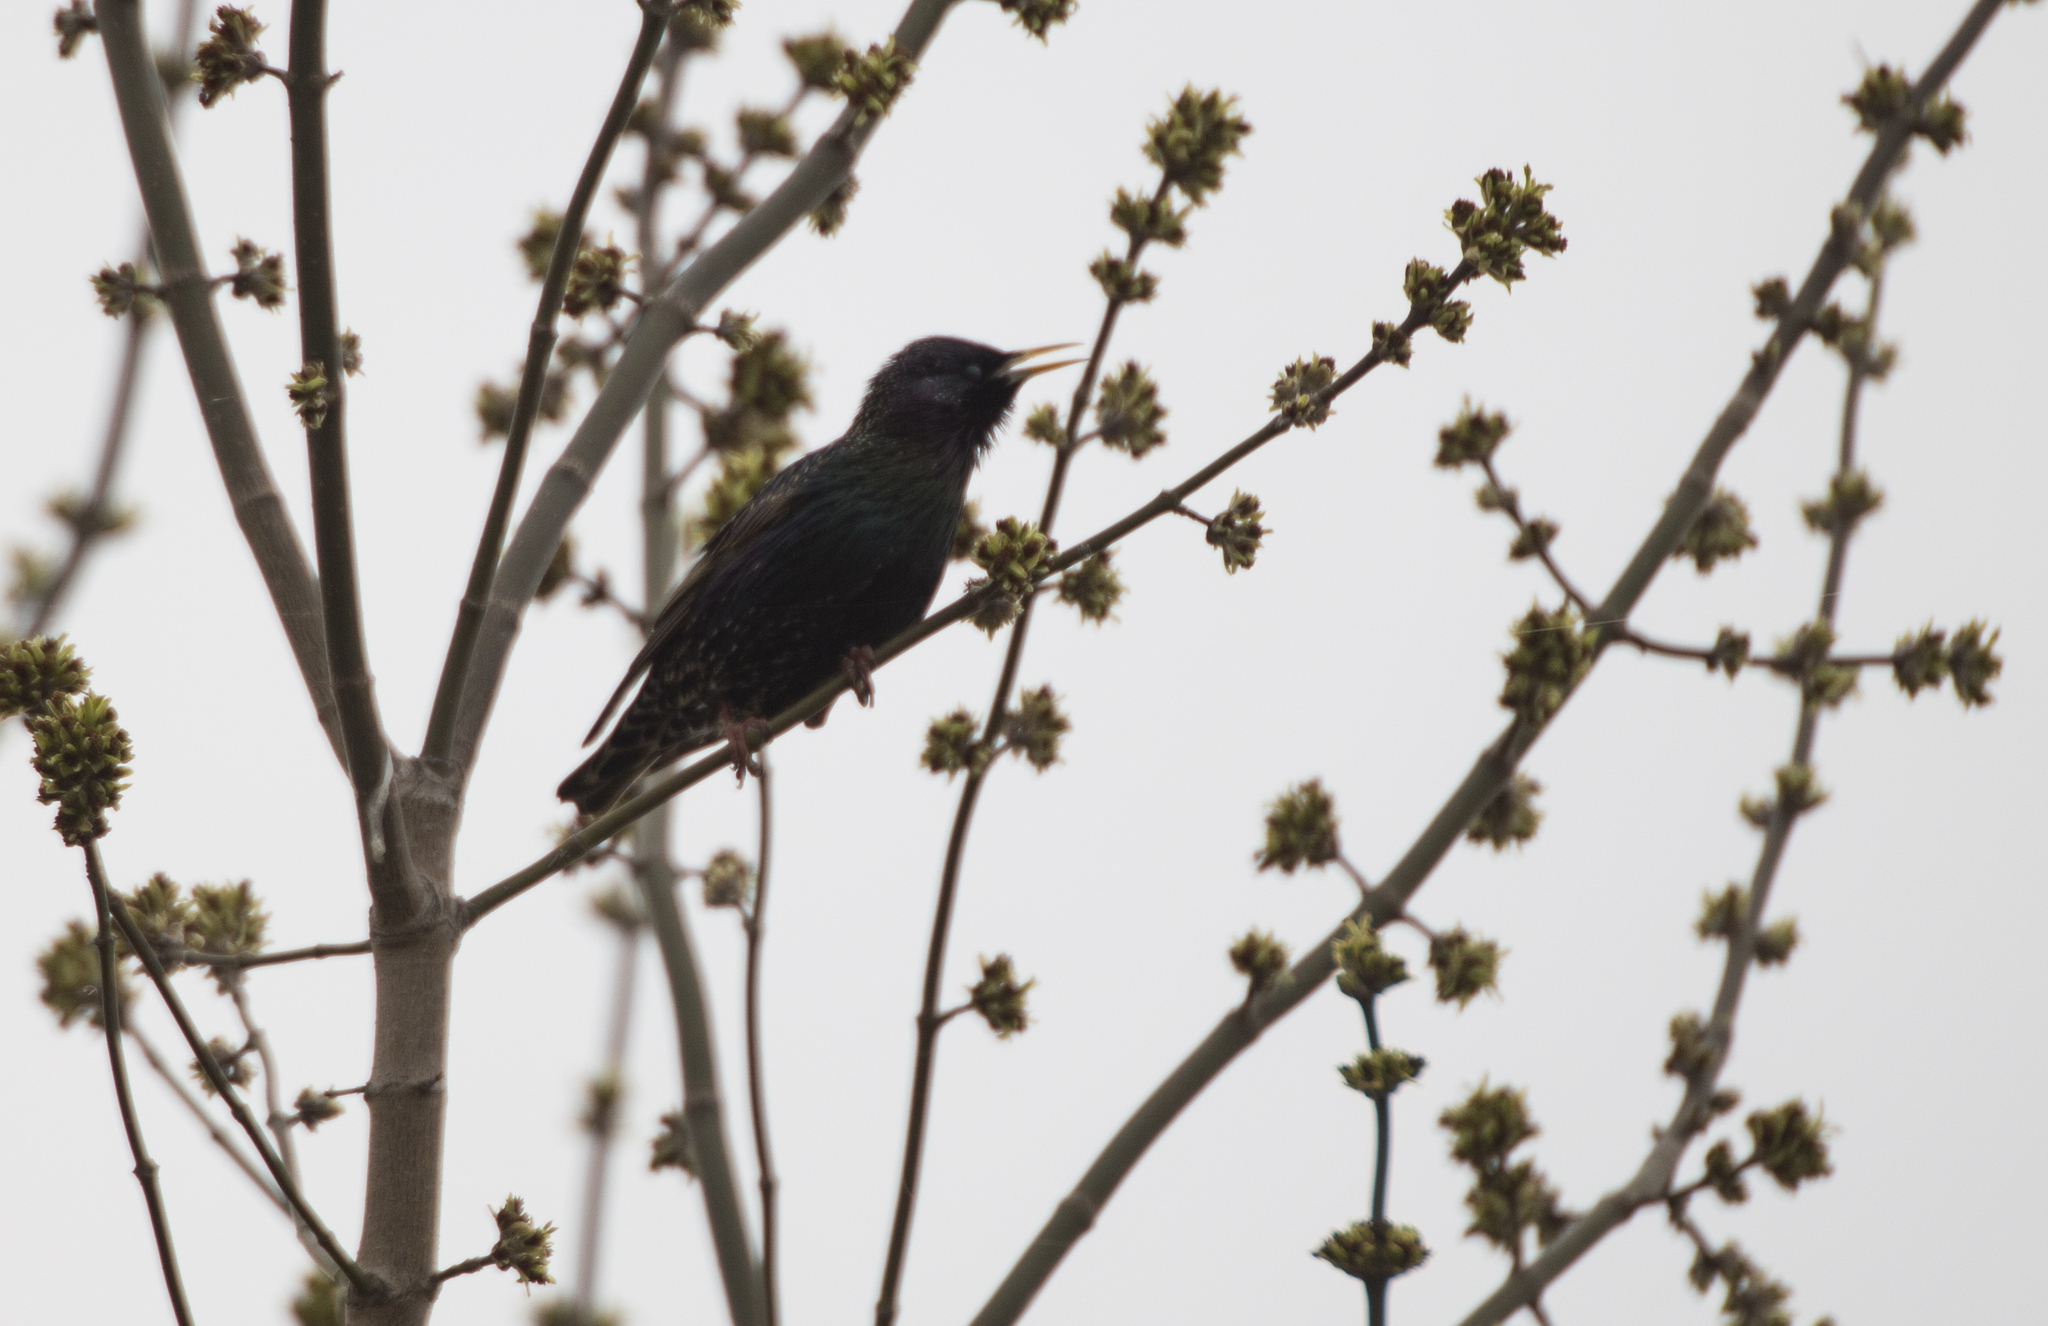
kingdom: Animalia
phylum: Chordata
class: Aves
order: Passeriformes
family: Sturnidae
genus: Sturnus
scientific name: Sturnus vulgaris
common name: Common starling
